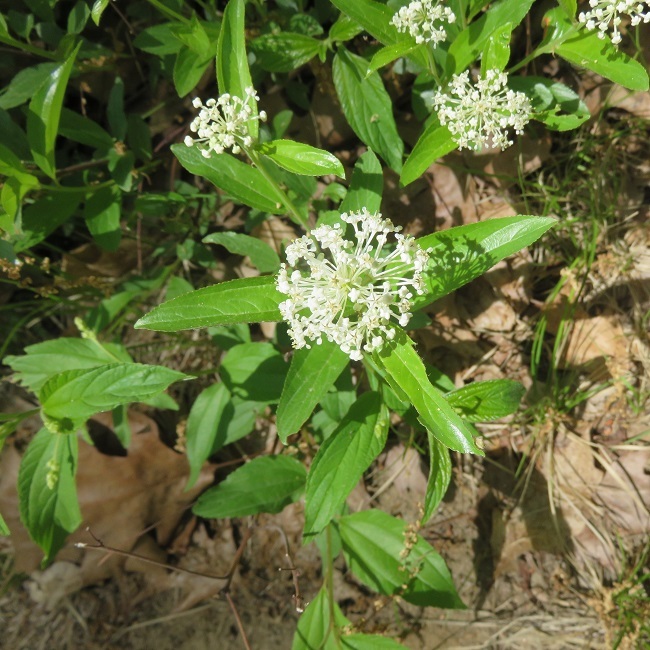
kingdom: Plantae
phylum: Tracheophyta
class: Magnoliopsida
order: Rosales
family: Rhamnaceae
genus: Ceanothus
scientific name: Ceanothus herbaceus
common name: Inland ceanothus
